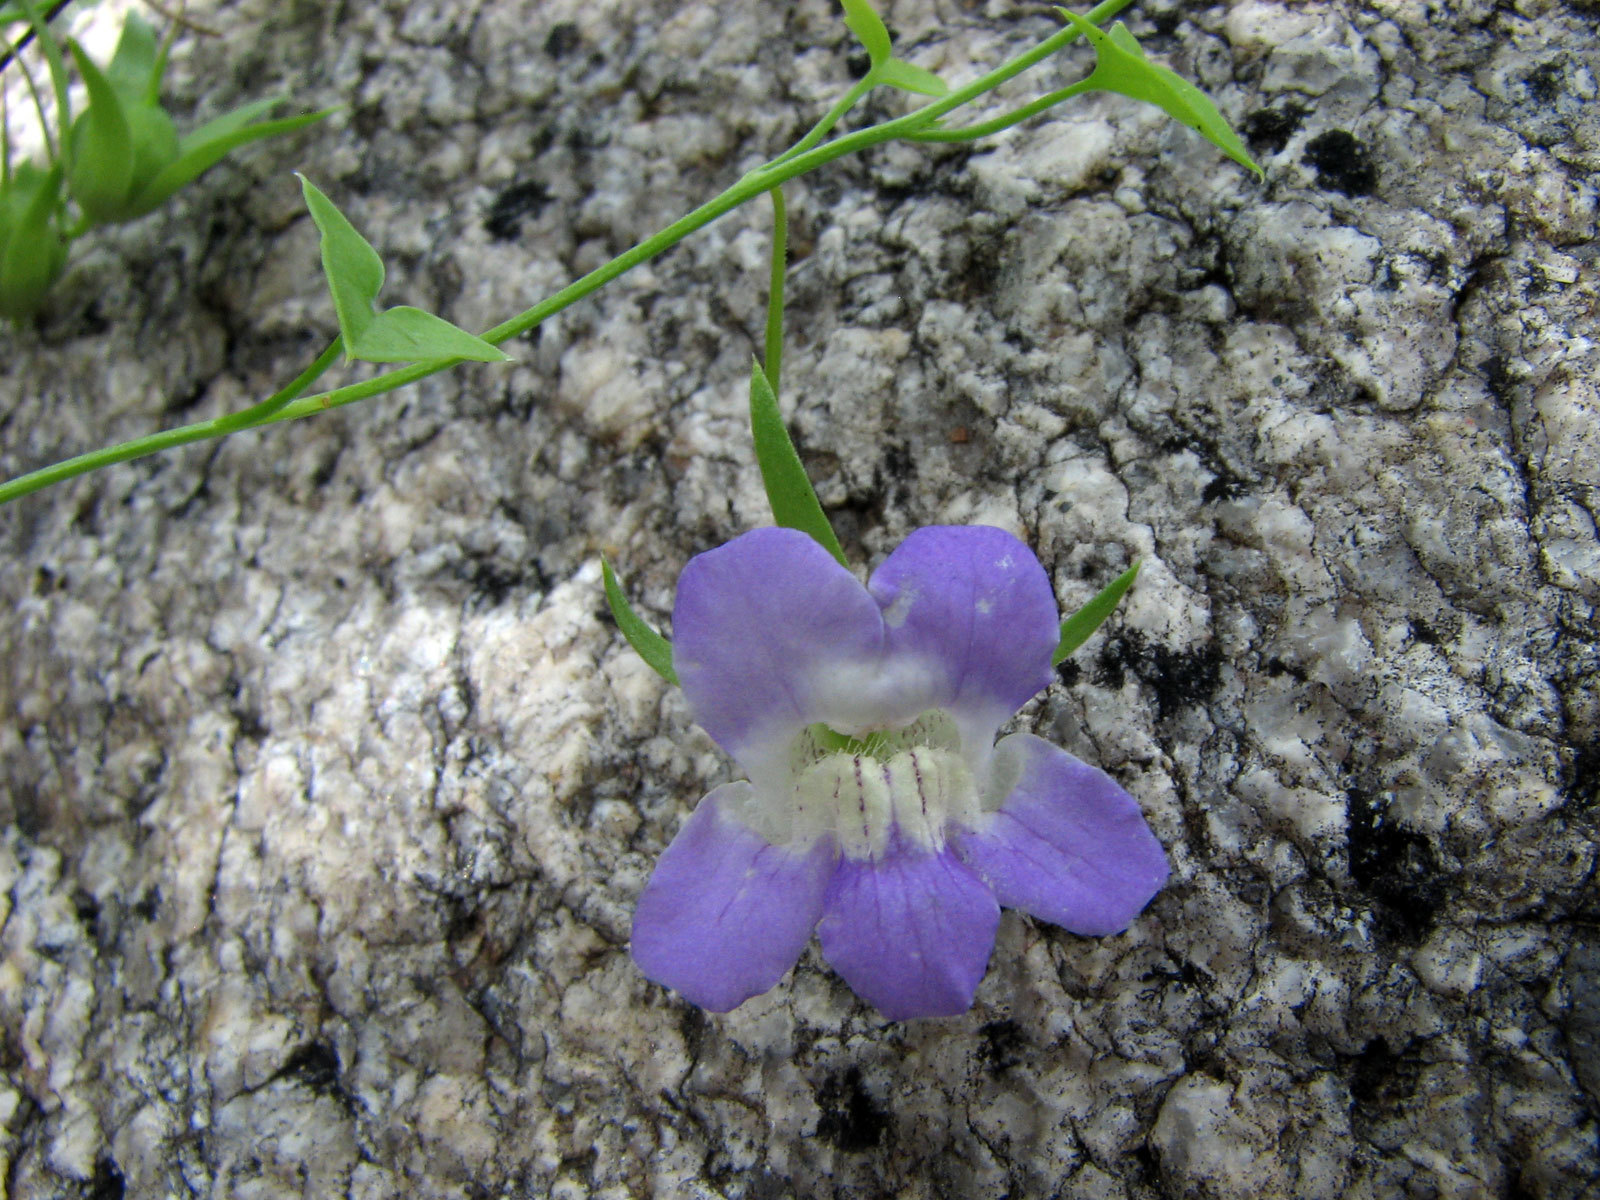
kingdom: Plantae
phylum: Tracheophyta
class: Magnoliopsida
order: Lamiales
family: Plantaginaceae
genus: Maurandella
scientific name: Maurandella antirrhiniflora
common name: Violet twining-snapdragon
